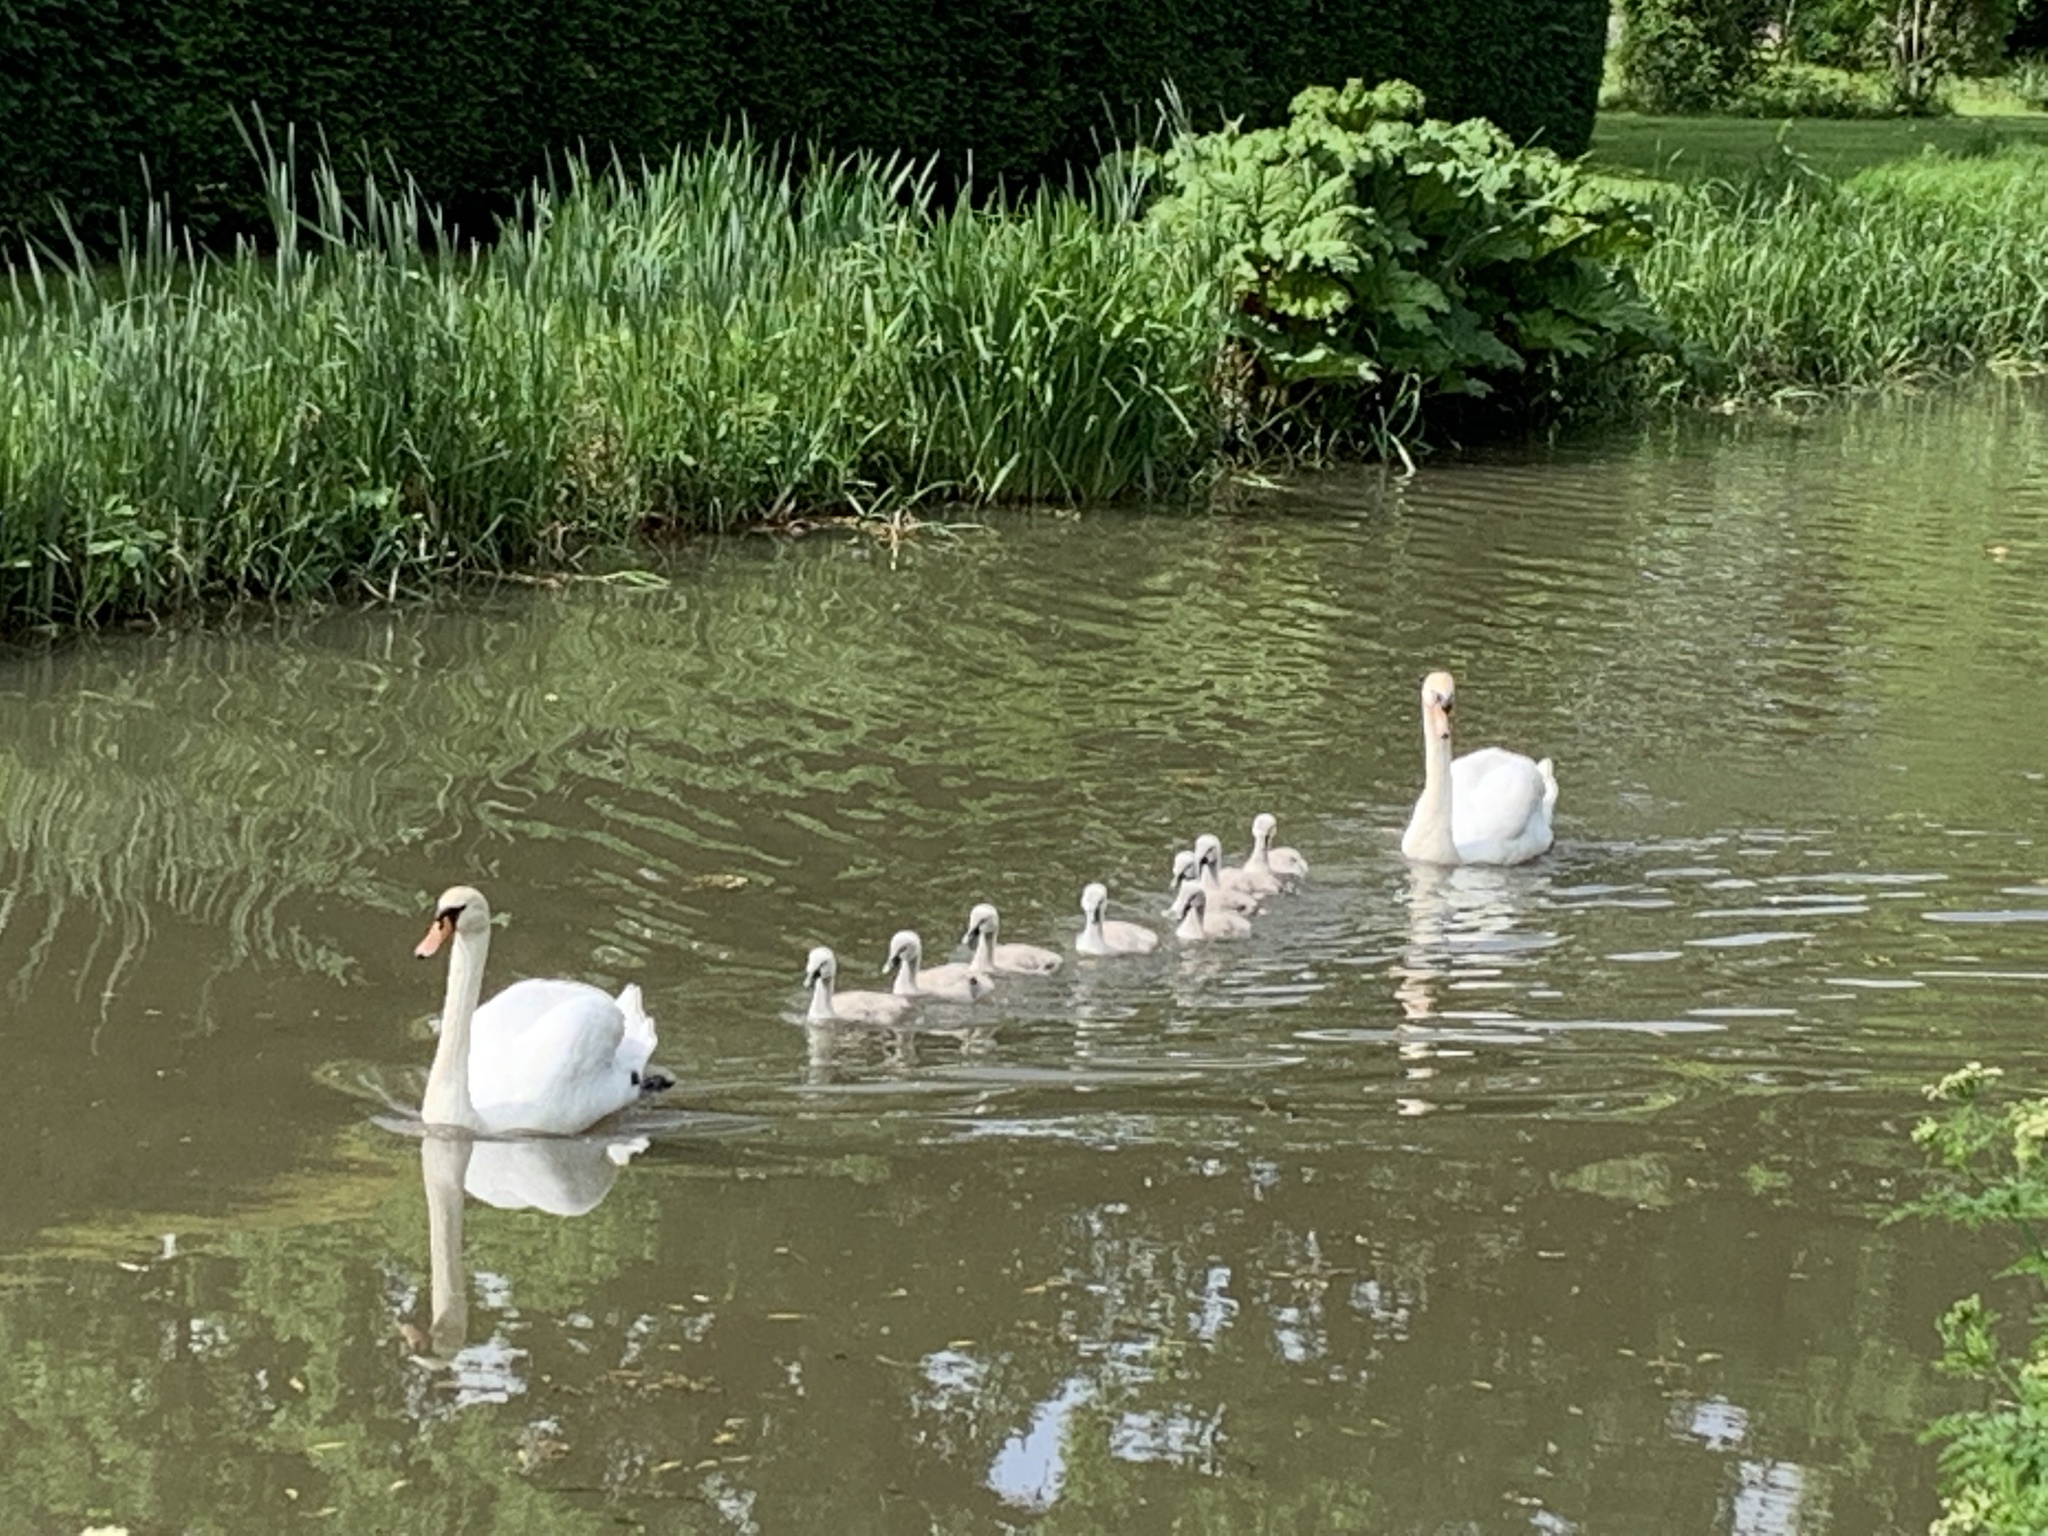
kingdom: Animalia
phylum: Chordata
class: Aves
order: Anseriformes
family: Anatidae
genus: Cygnus
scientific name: Cygnus olor
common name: Mute swan
